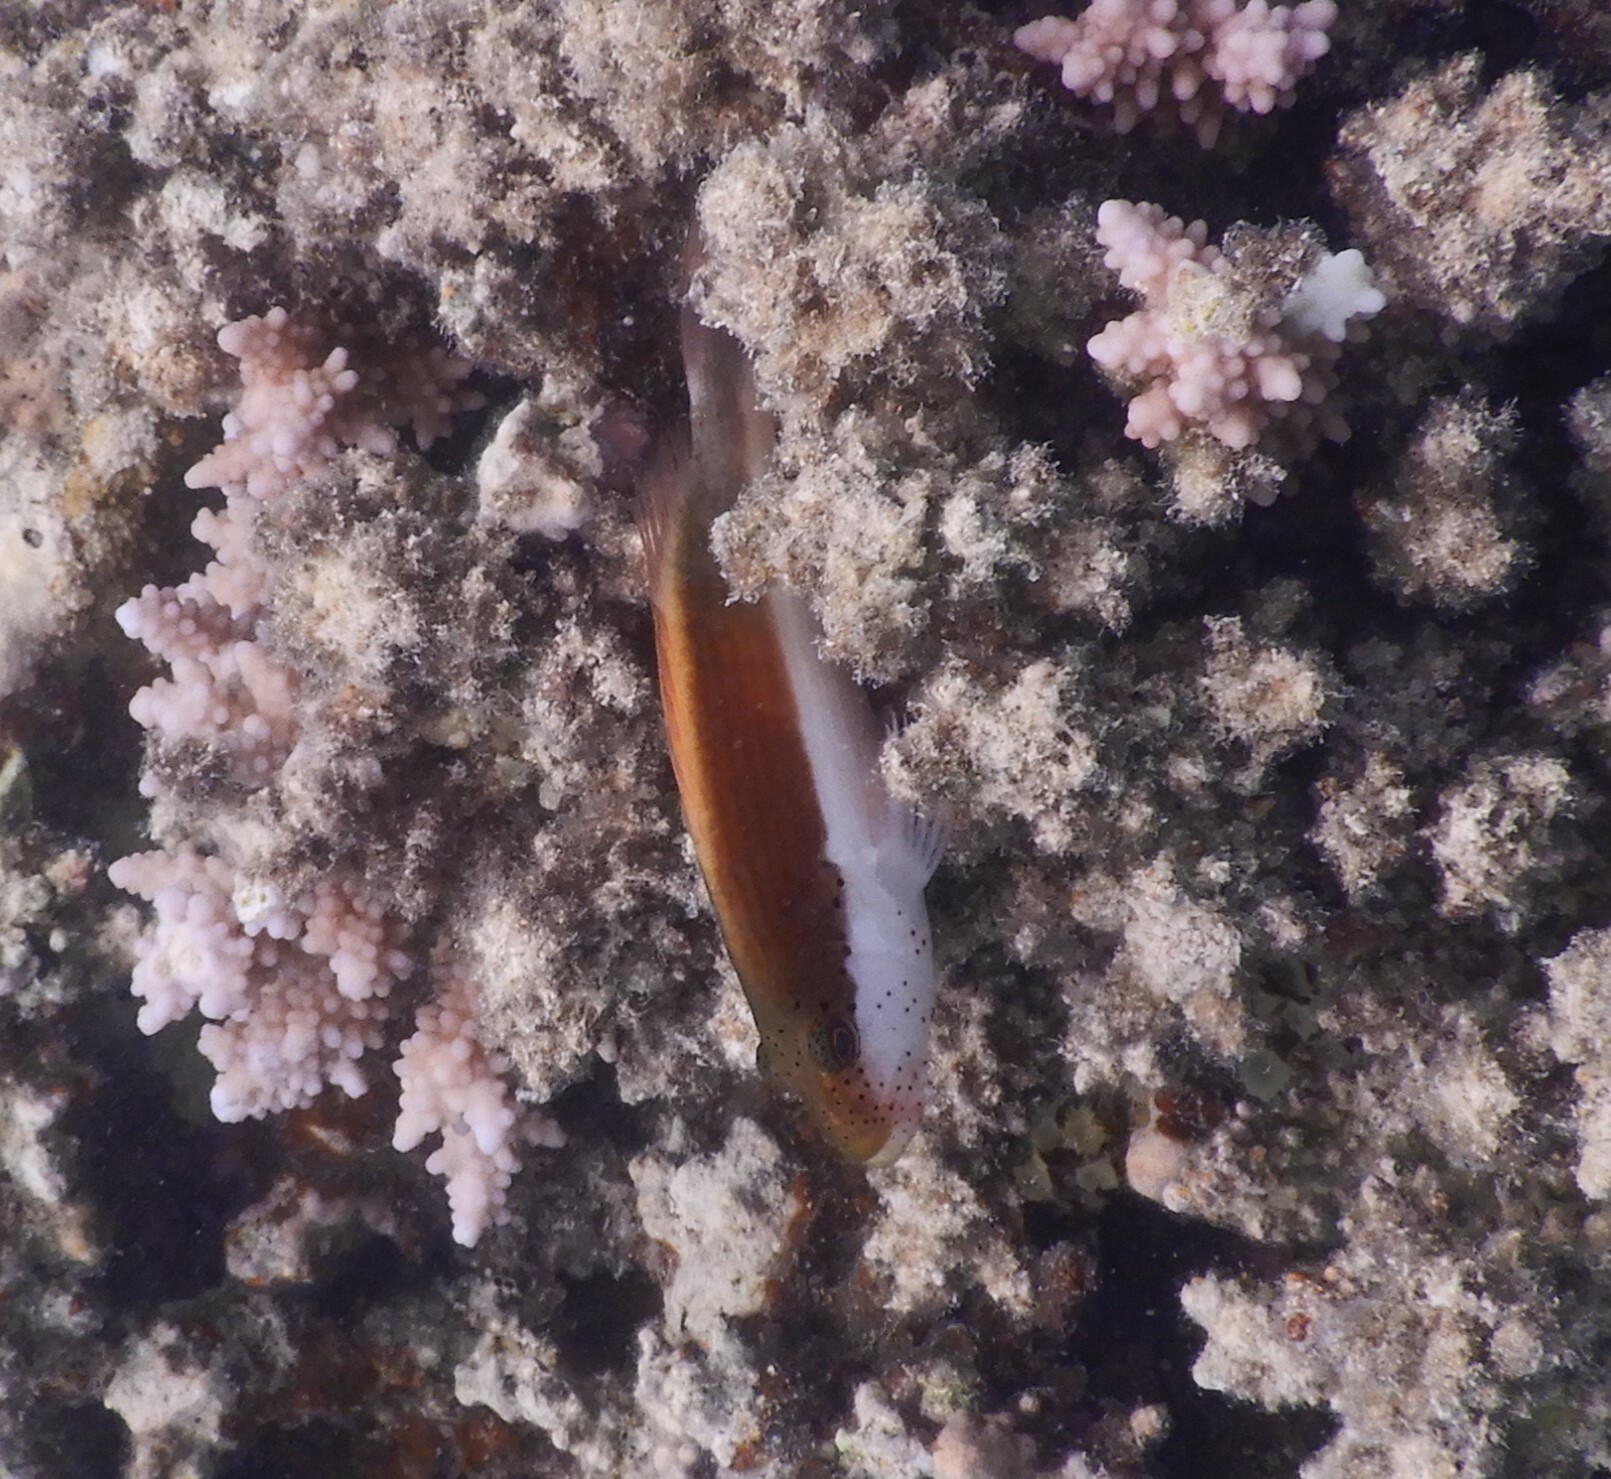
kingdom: Animalia
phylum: Chordata
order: Perciformes
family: Cirrhitidae
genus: Paracirrhites
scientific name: Paracirrhites forsteri
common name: Freckled hawkfish
